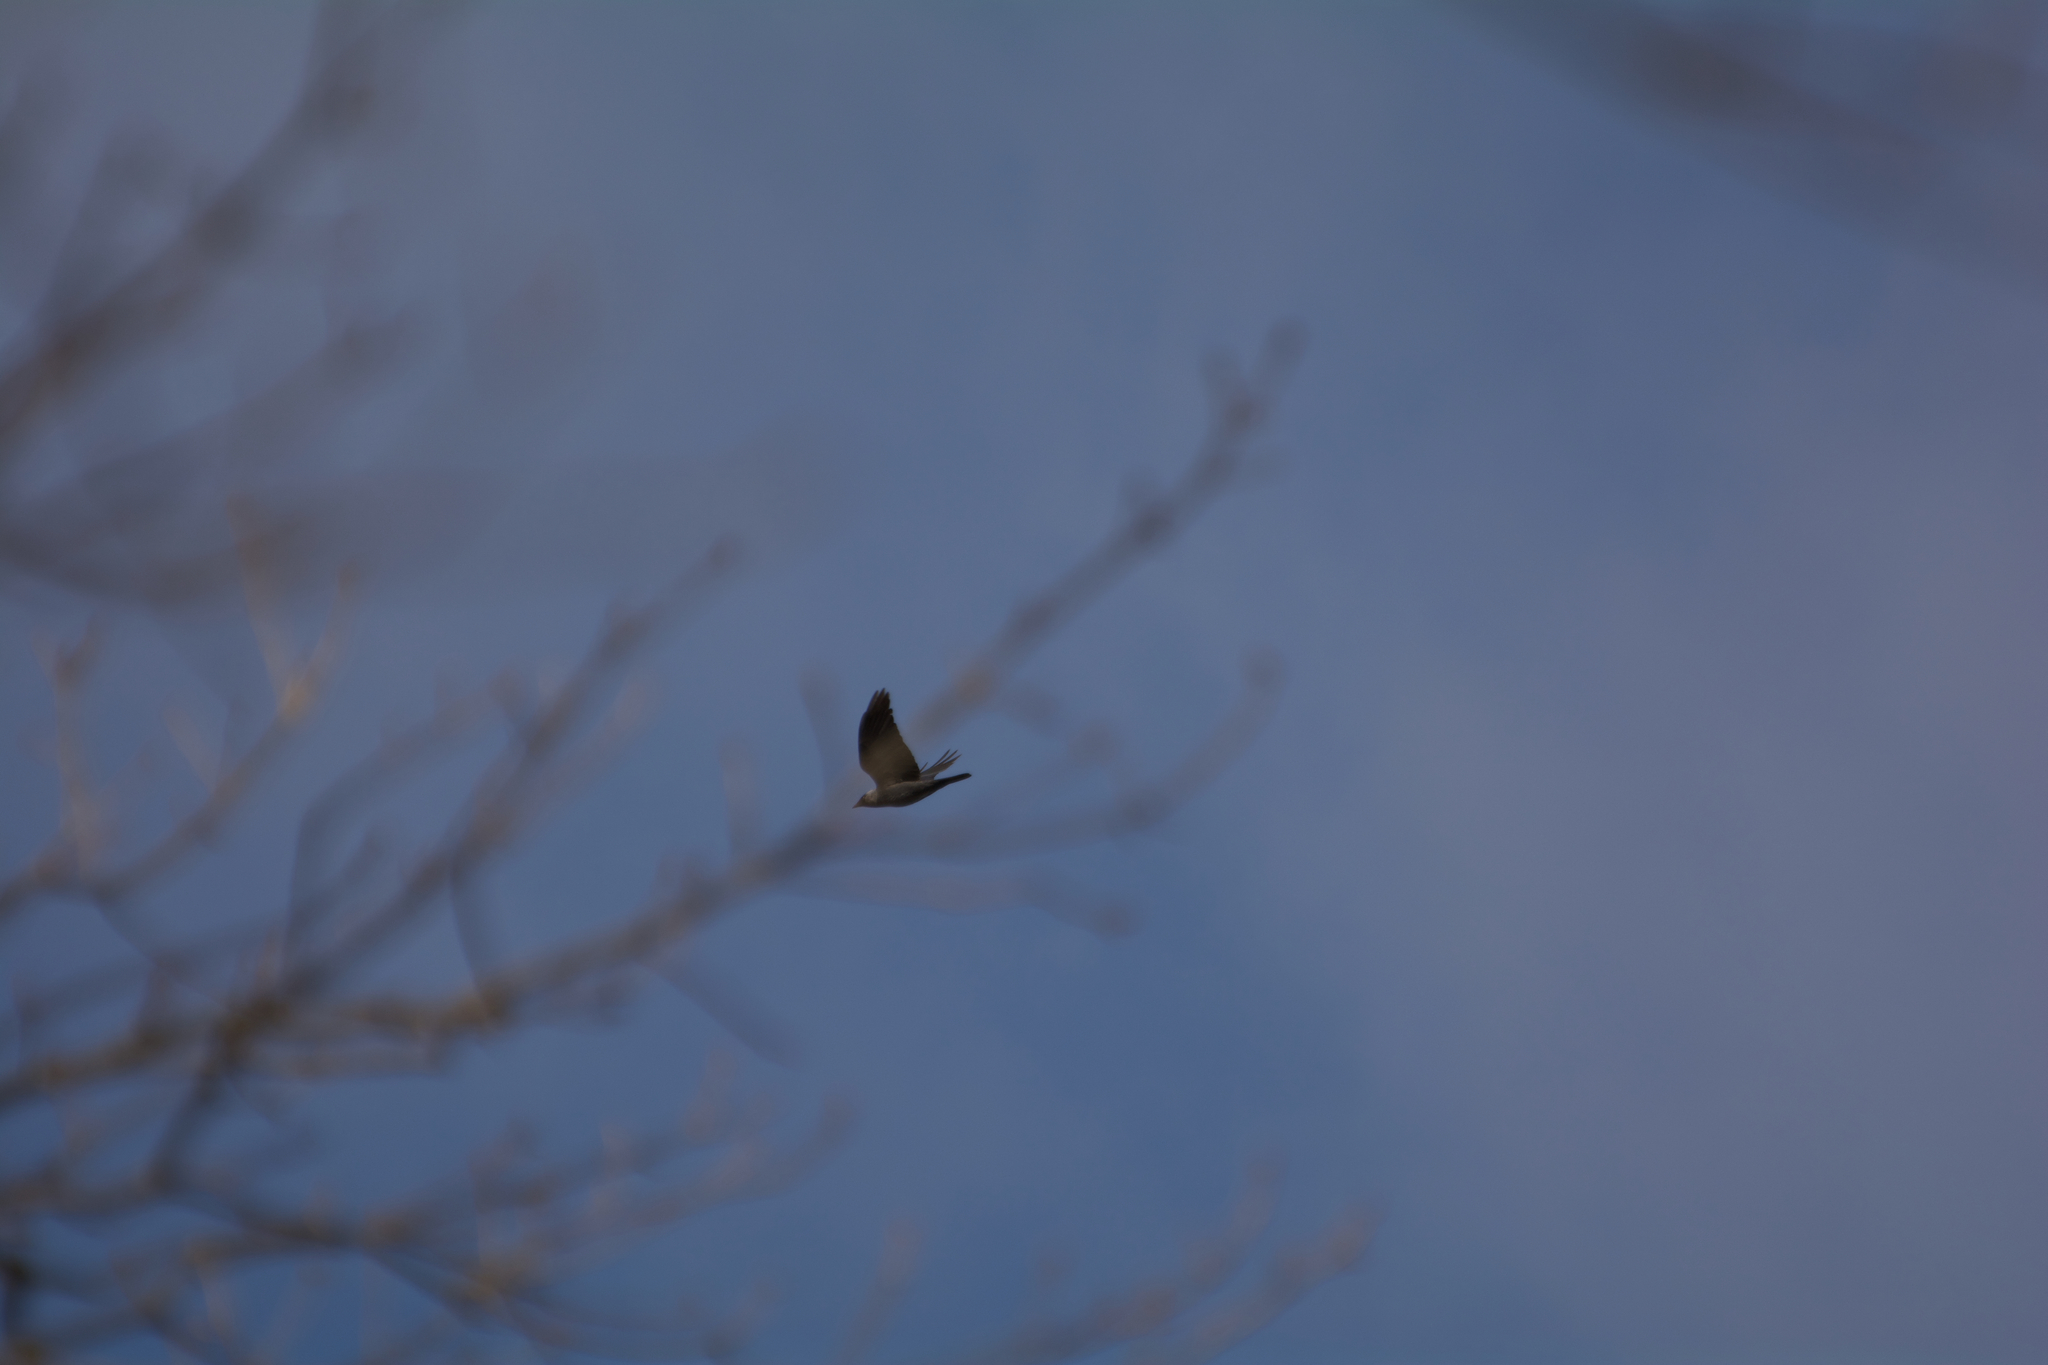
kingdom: Animalia
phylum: Chordata
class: Aves
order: Passeriformes
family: Corvidae
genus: Coloeus
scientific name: Coloeus monedula
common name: Western jackdaw
